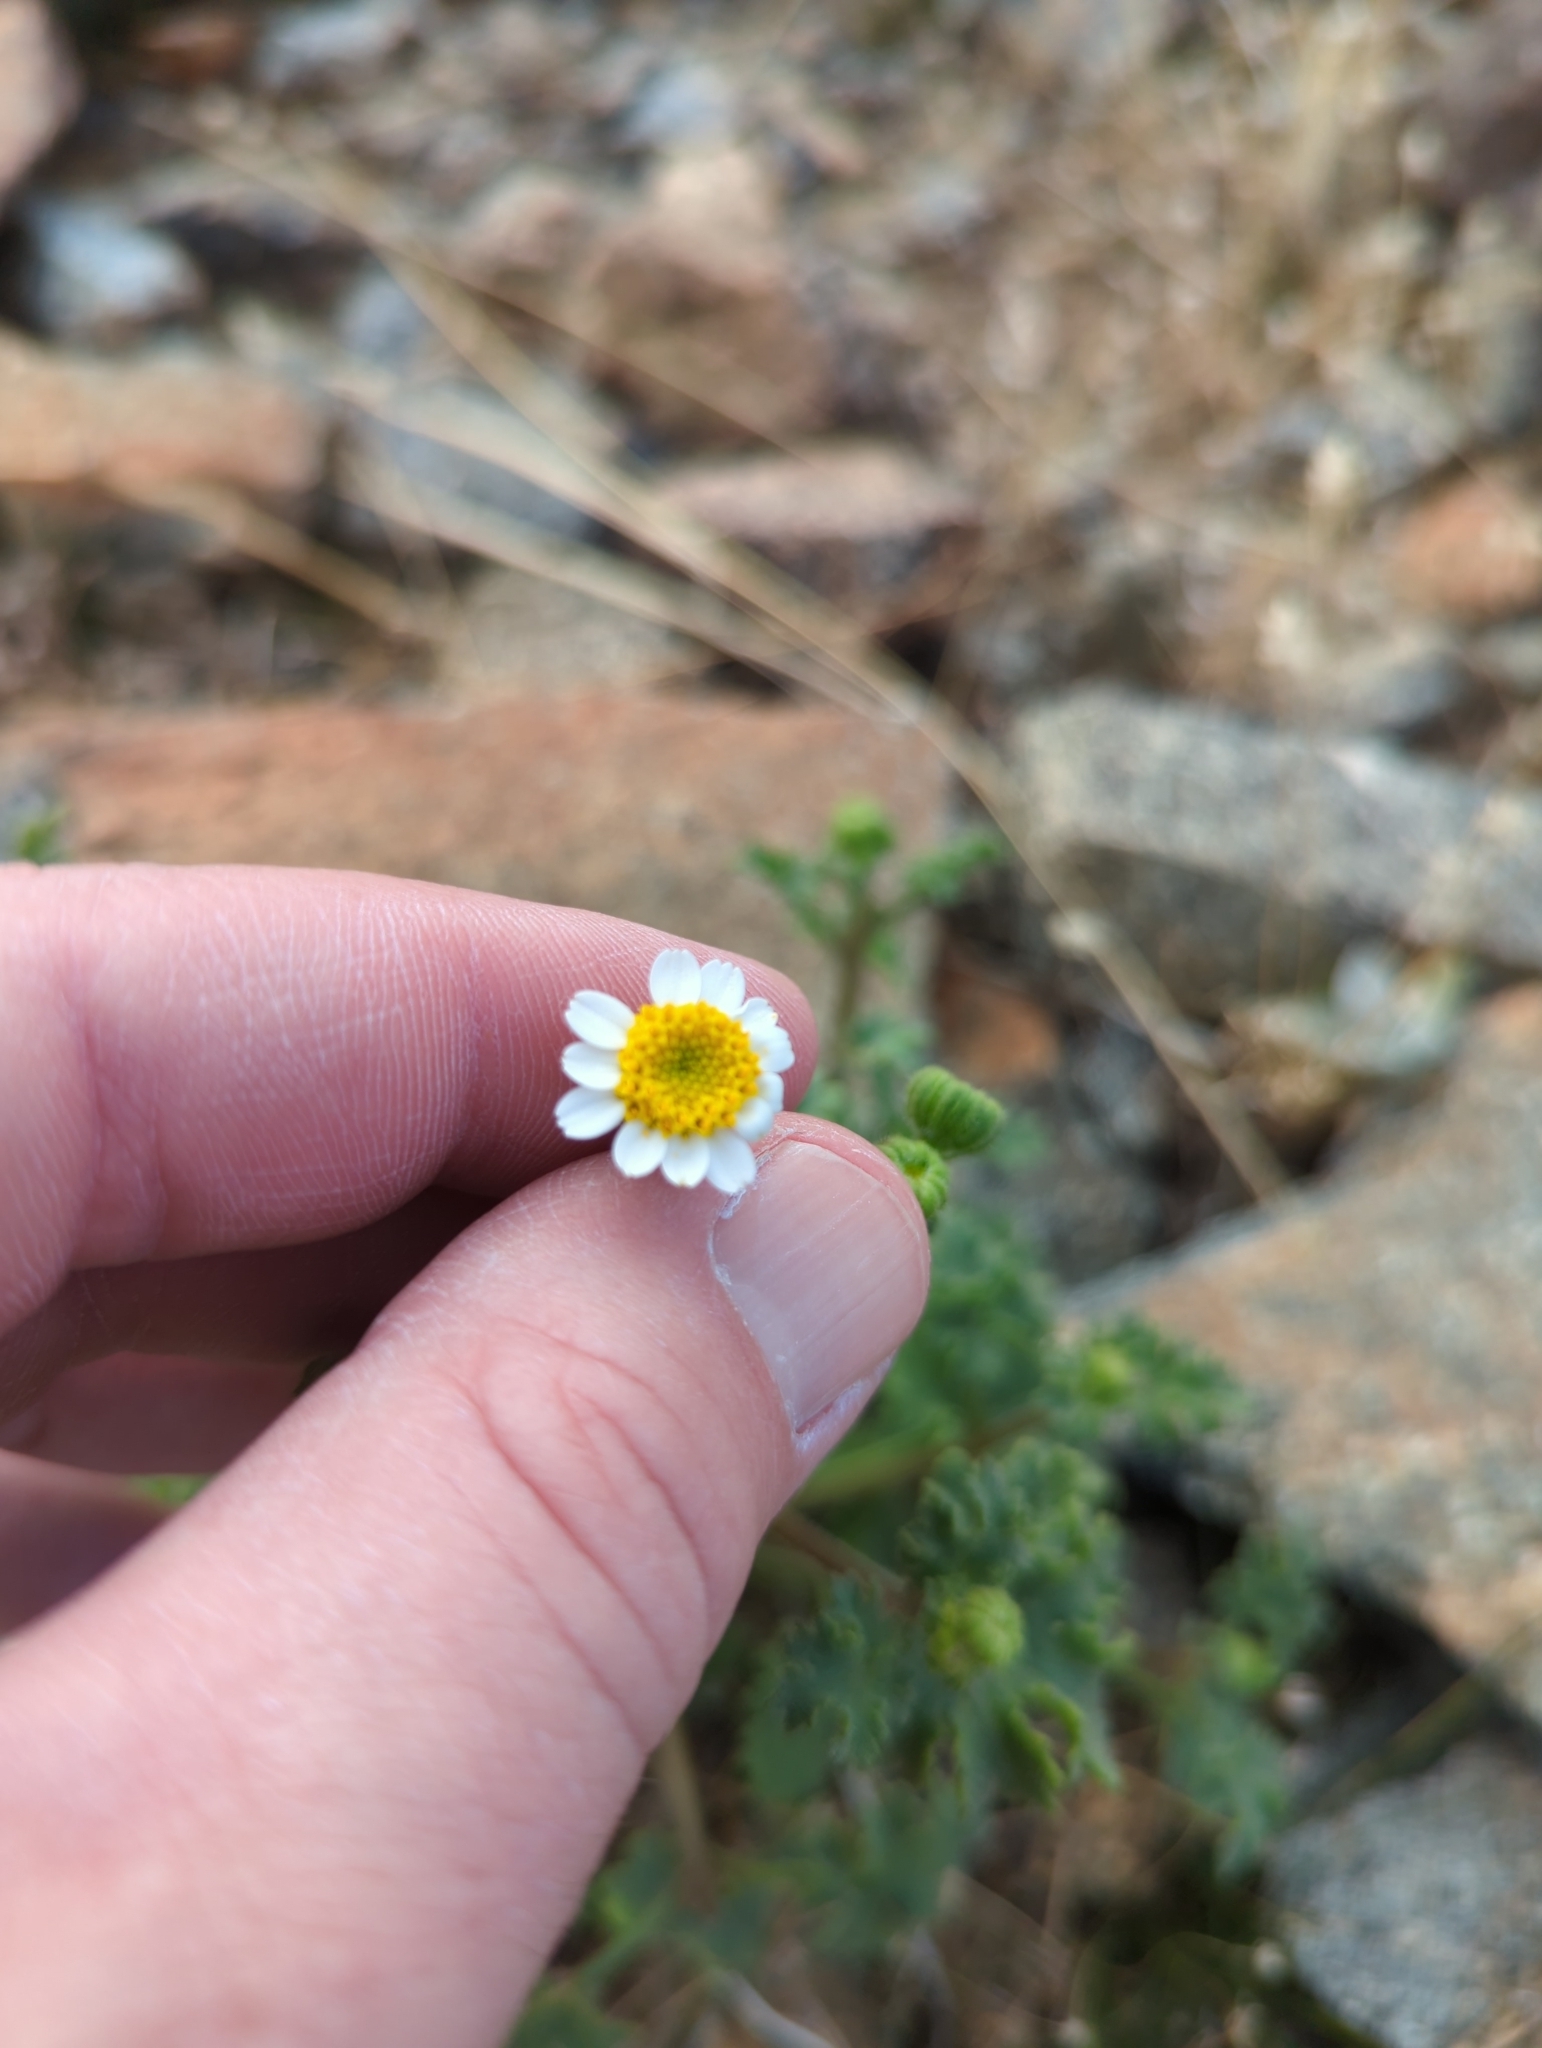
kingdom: Plantae
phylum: Tracheophyta
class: Magnoliopsida
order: Asterales
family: Asteraceae
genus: Laphamia
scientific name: Laphamia emoryi
